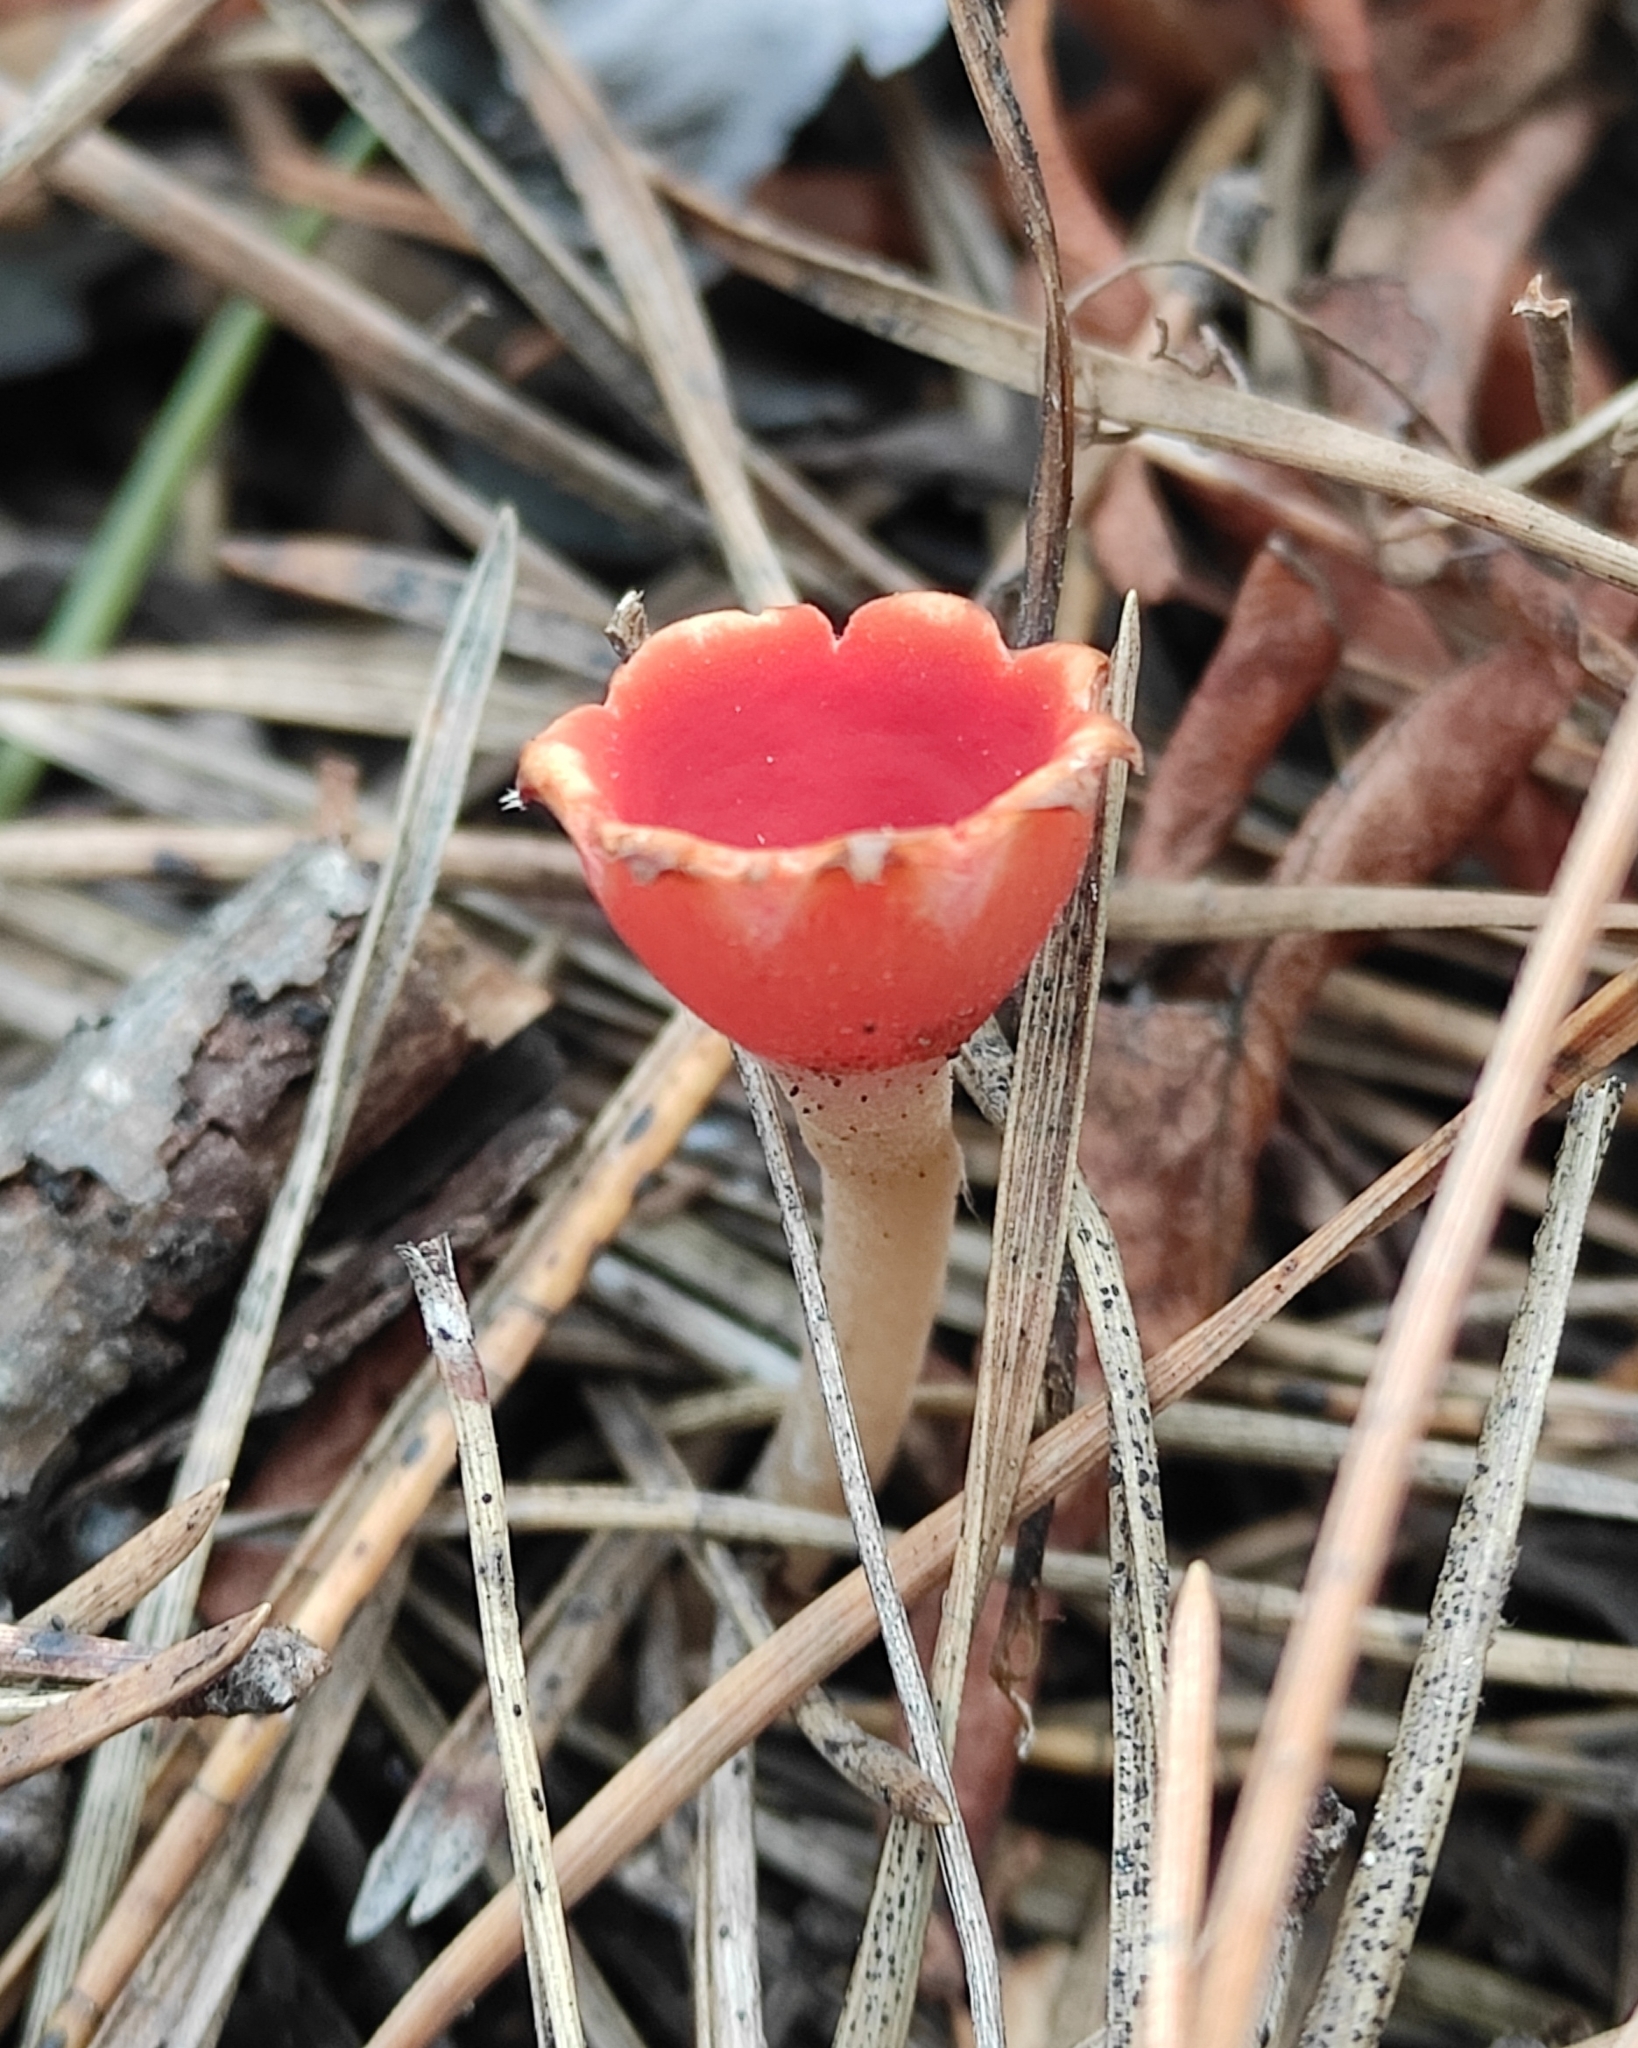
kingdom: Fungi
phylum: Ascomycota
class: Pezizomycetes
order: Pezizales
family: Sarcoscyphaceae
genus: Microstoma
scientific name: Microstoma protractum
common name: Rosy goblet
